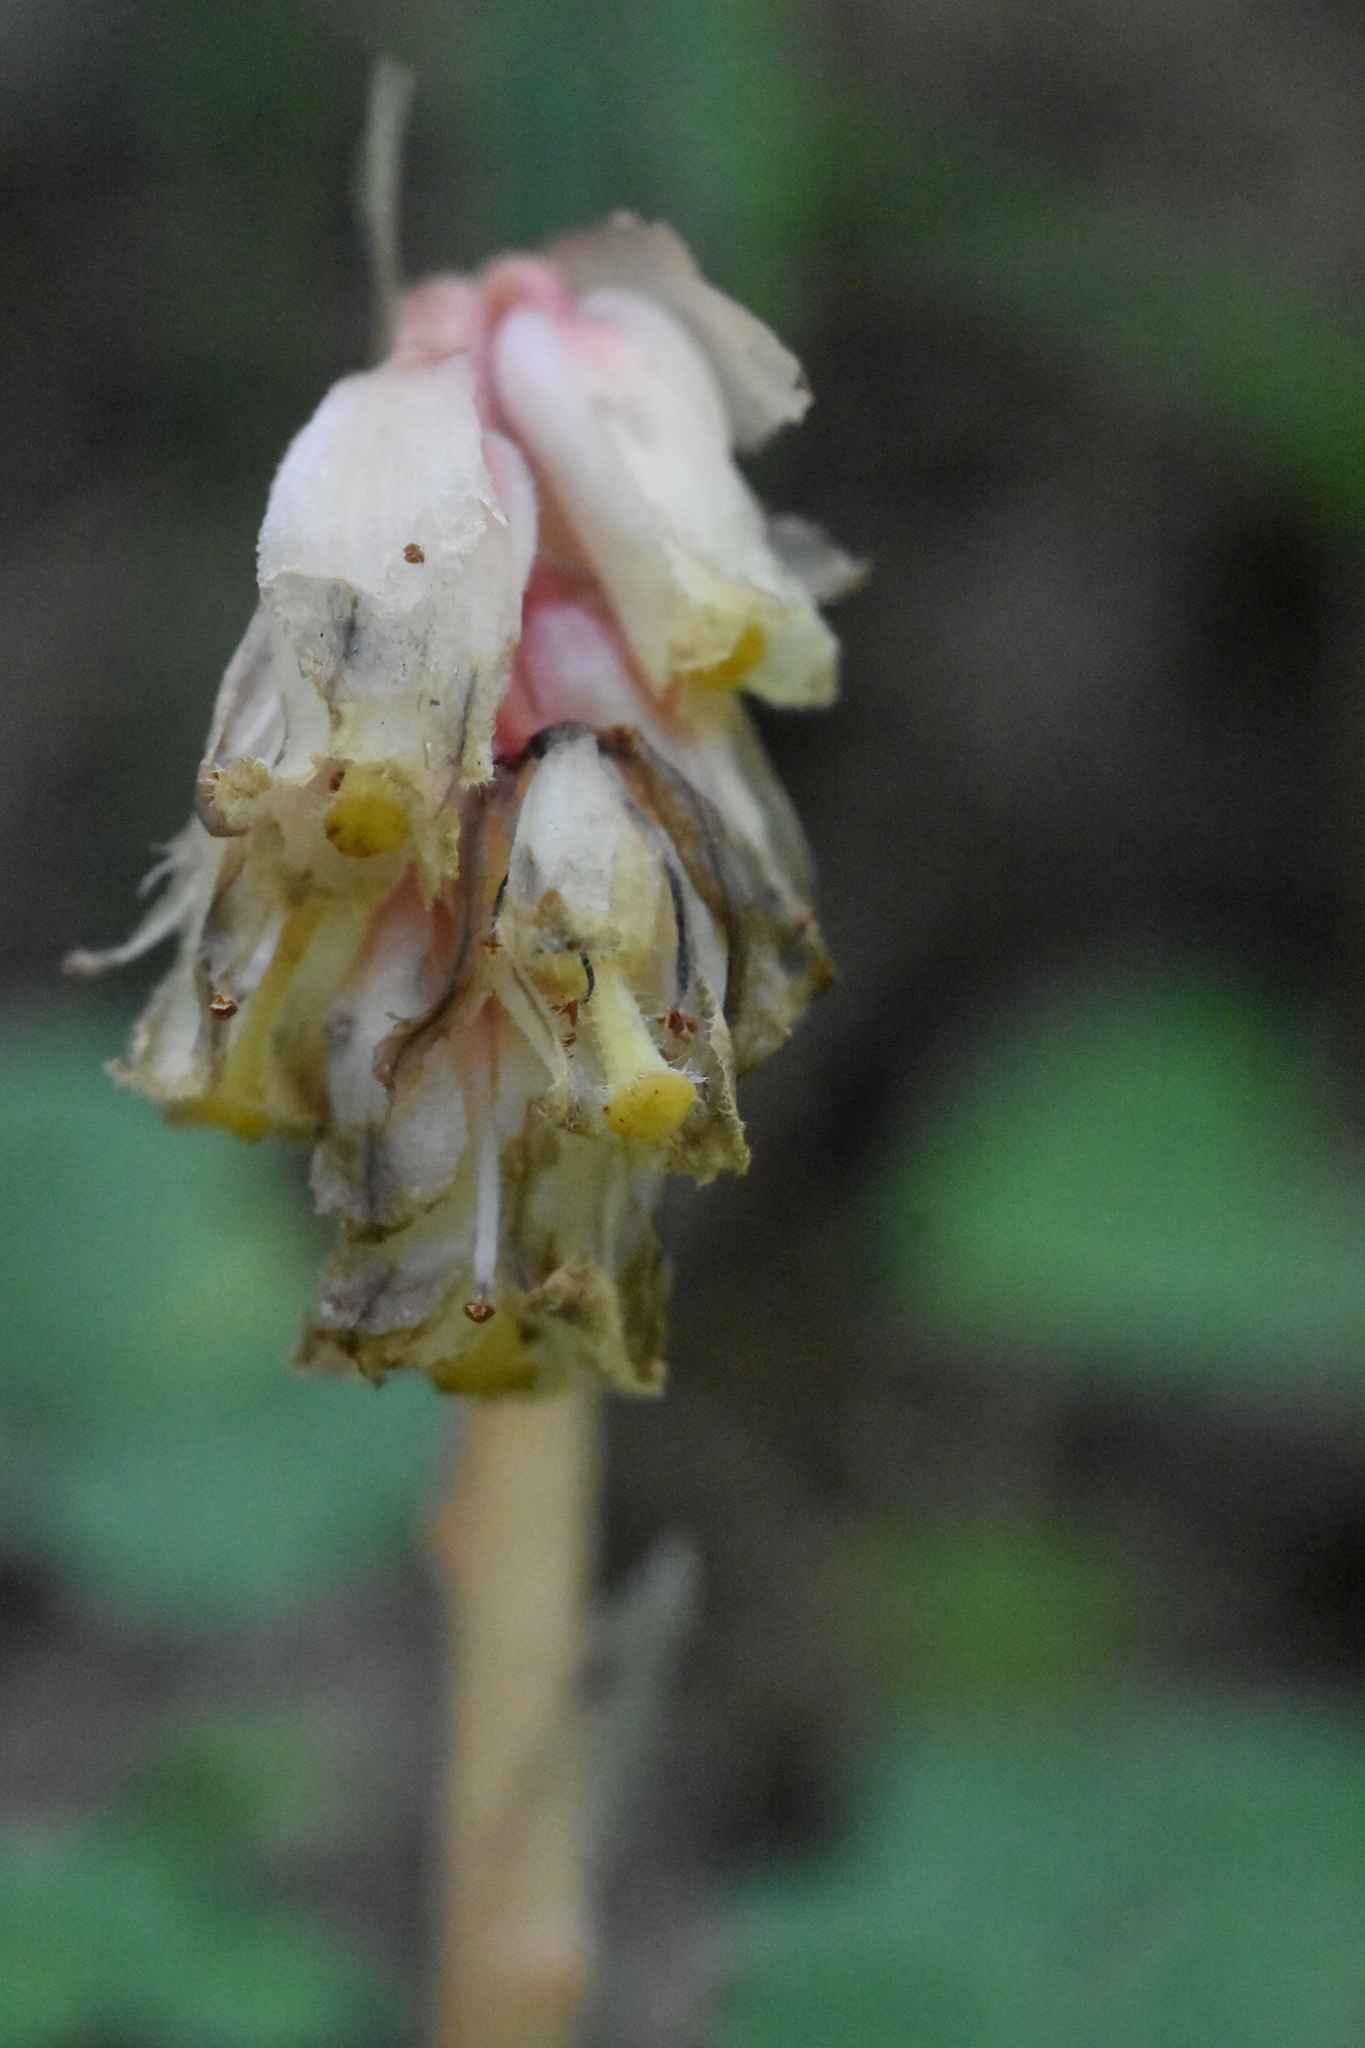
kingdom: Plantae
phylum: Tracheophyta
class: Magnoliopsida
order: Ericales
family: Ericaceae
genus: Hypopitys
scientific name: Hypopitys monotropa
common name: Yellow bird's-nest
